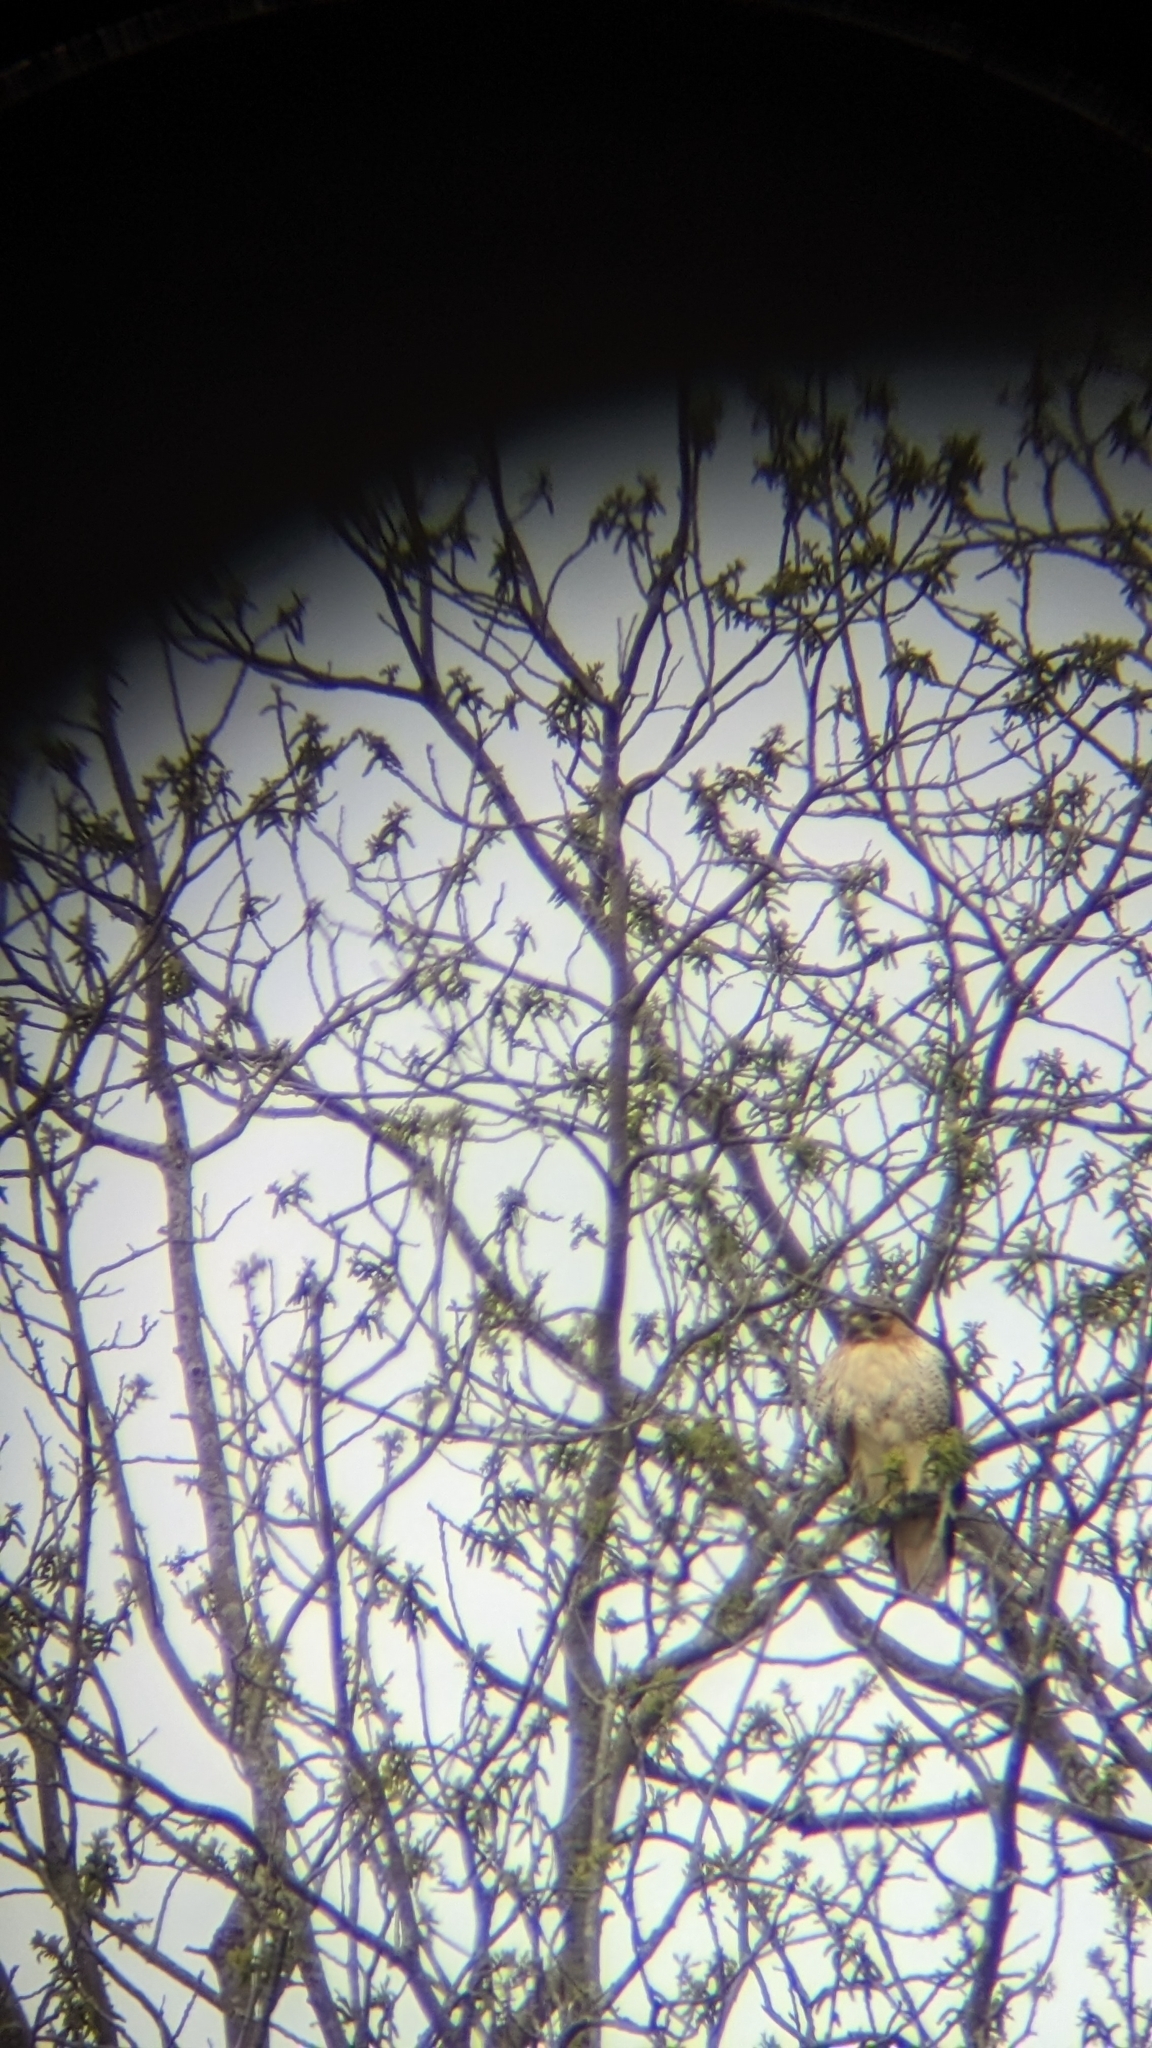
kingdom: Animalia
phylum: Chordata
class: Aves
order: Accipitriformes
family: Accipitridae
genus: Buteo
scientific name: Buteo jamaicensis
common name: Red-tailed hawk
